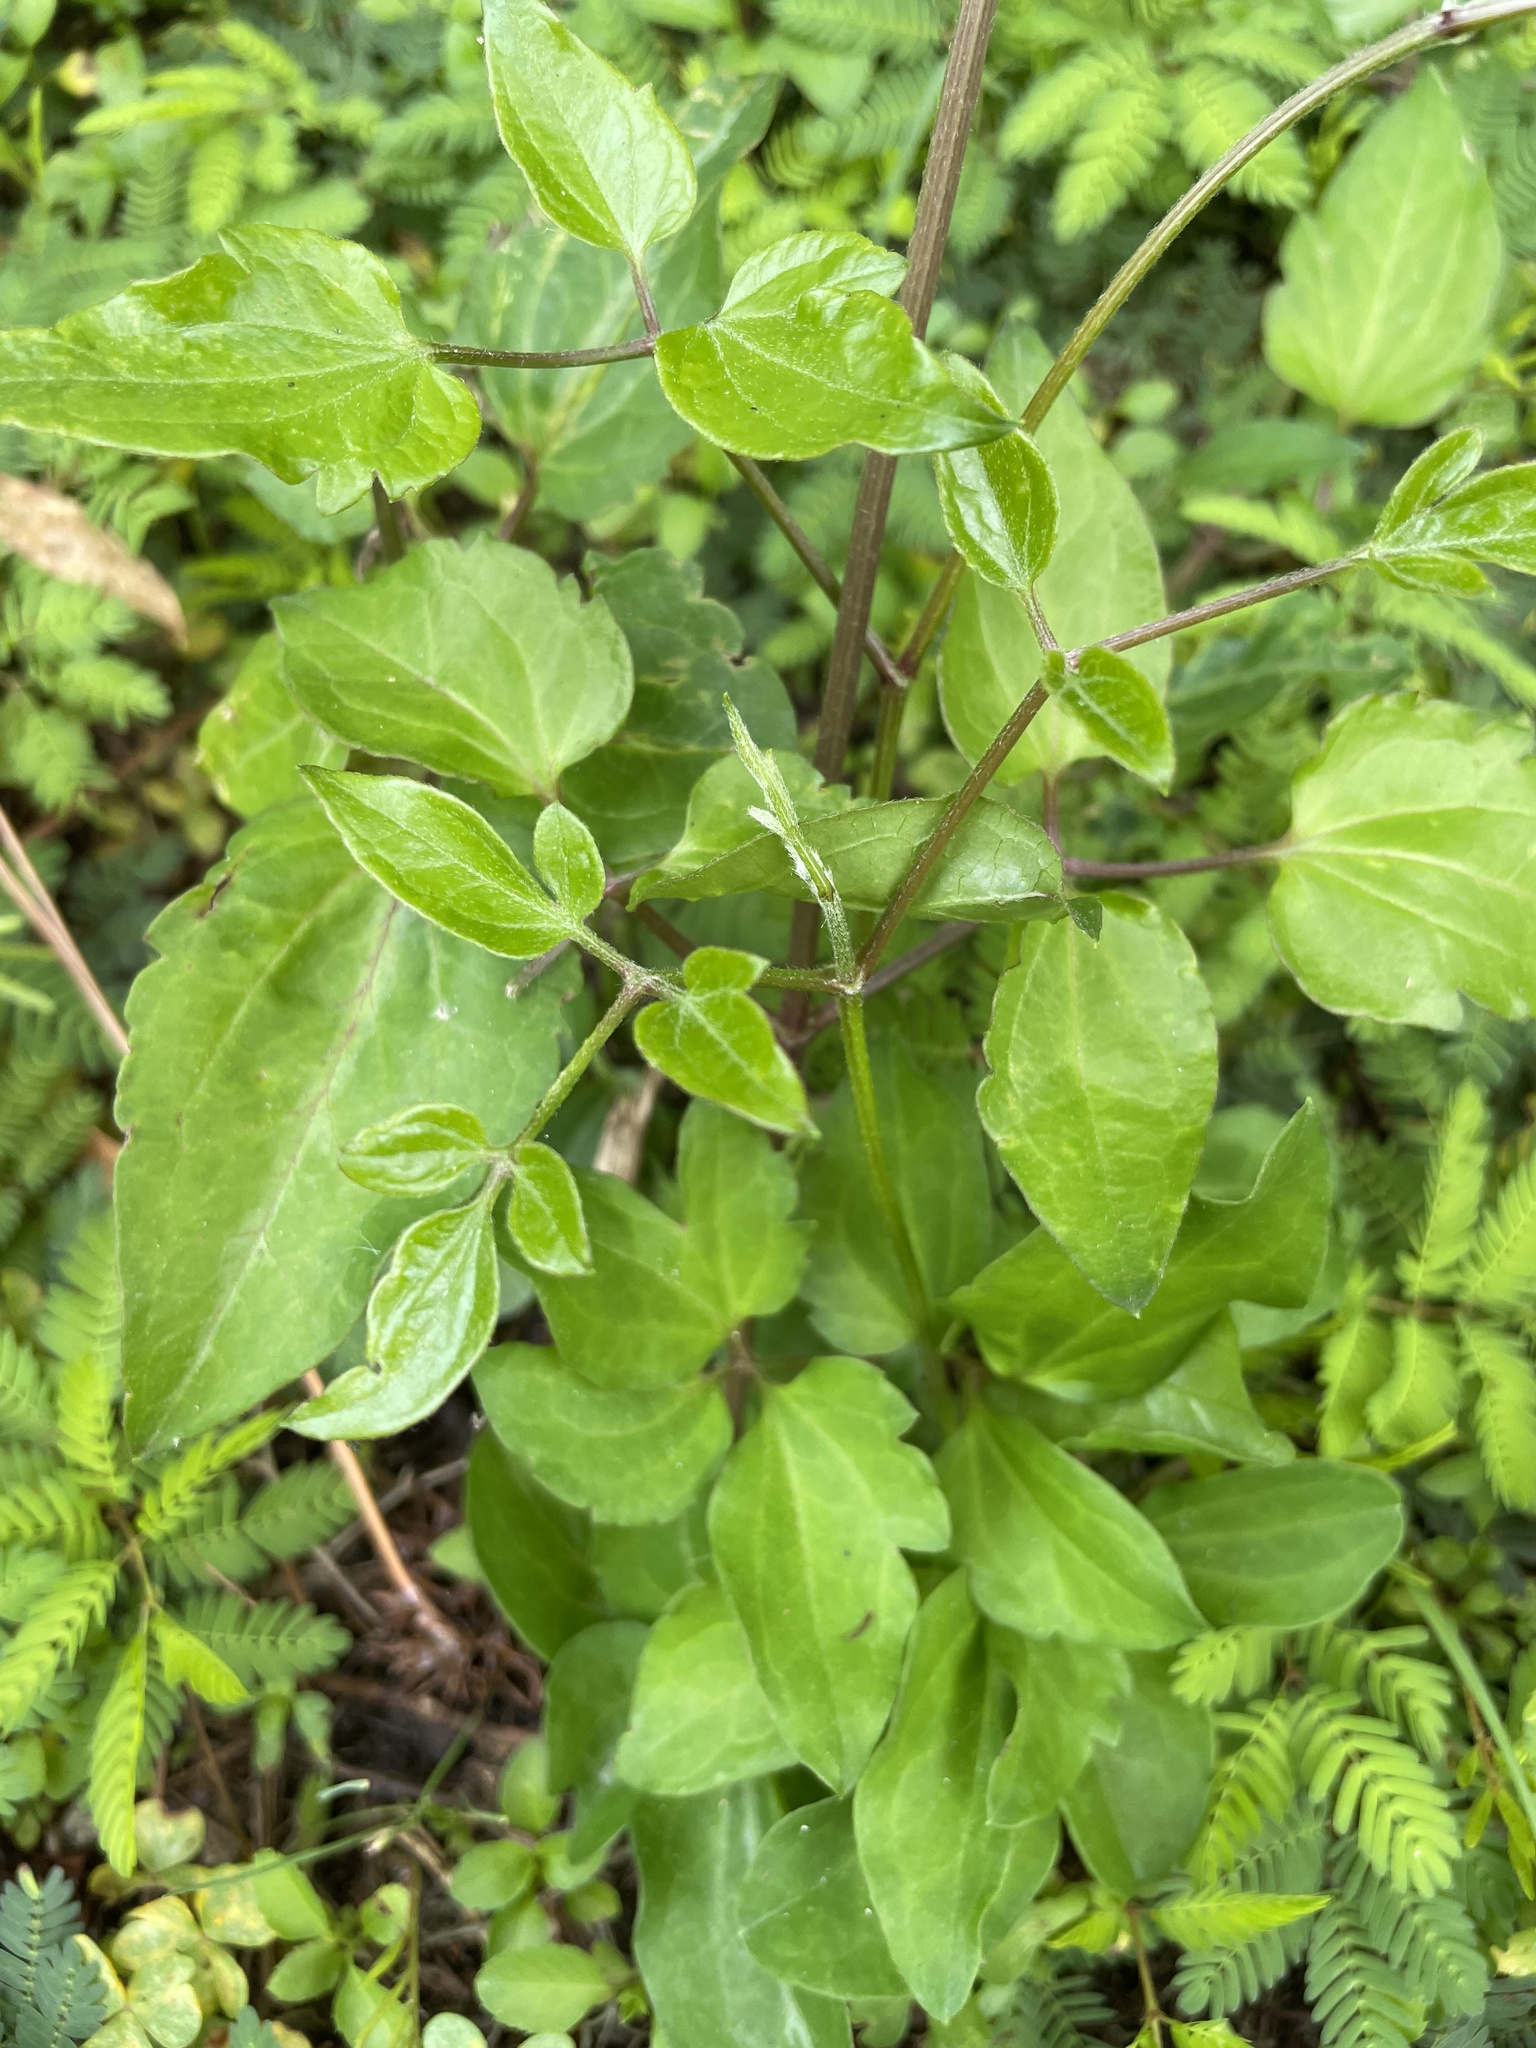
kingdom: Plantae
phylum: Tracheophyta
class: Magnoliopsida
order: Ranunculales
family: Ranunculaceae
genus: Clematis
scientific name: Clematis terniflora
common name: Sweet autumn clematis
